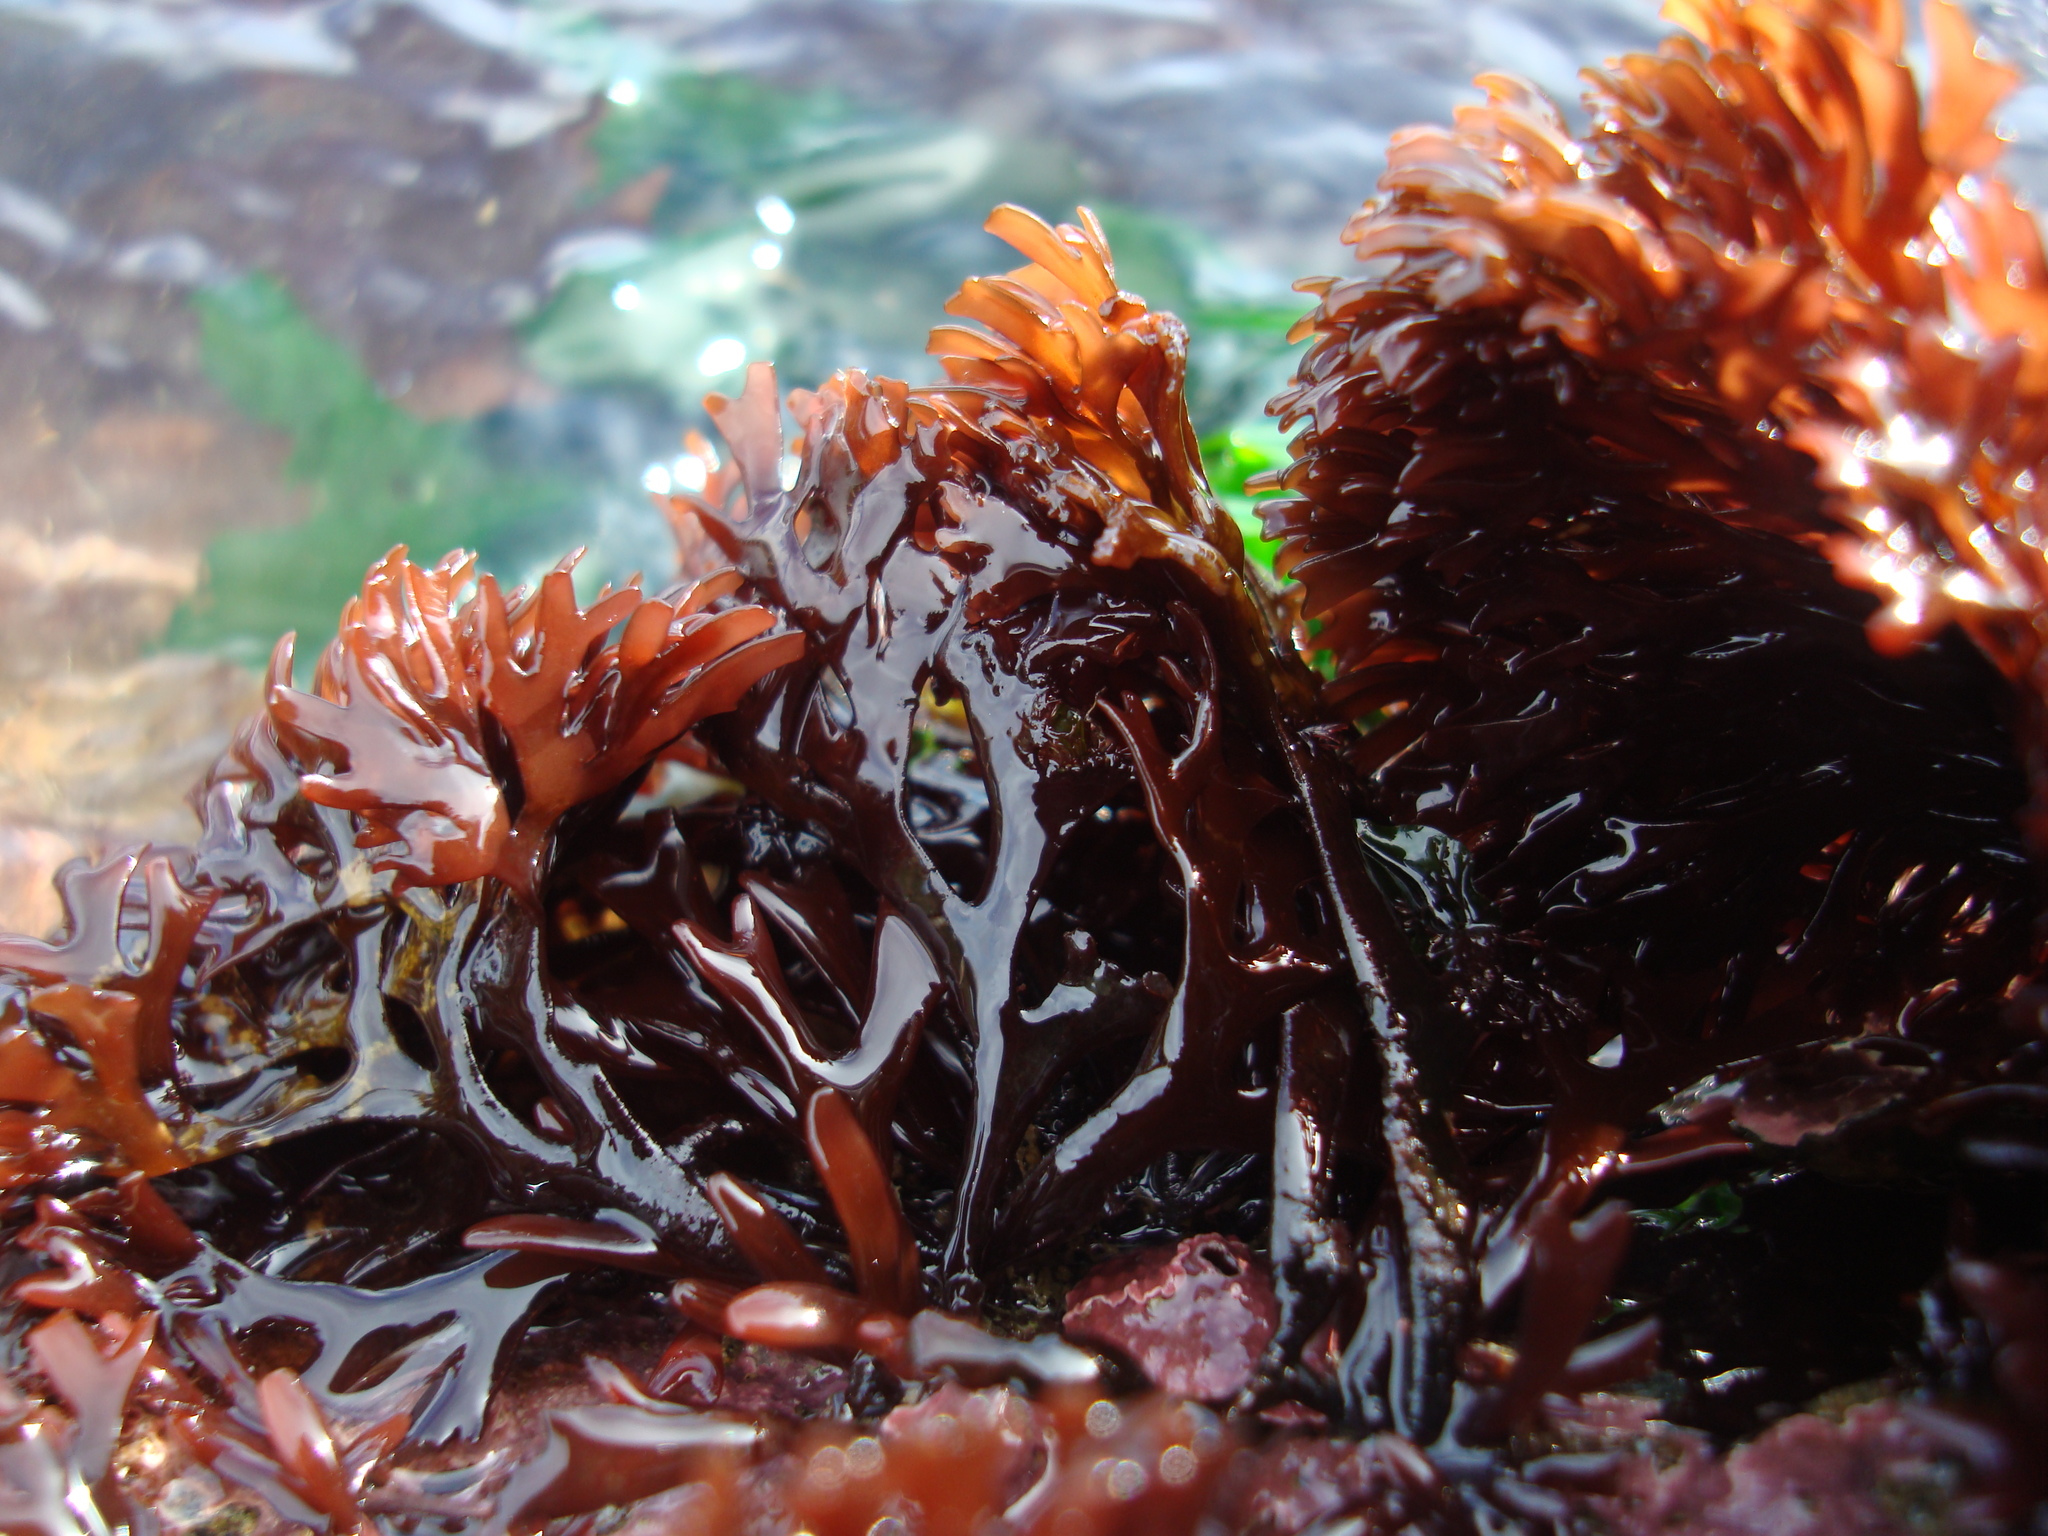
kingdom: Plantae
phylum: Rhodophyta
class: Florideophyceae
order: Gigartinales
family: Sarcodiaceae
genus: Trematocarpus
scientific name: Trematocarpus
